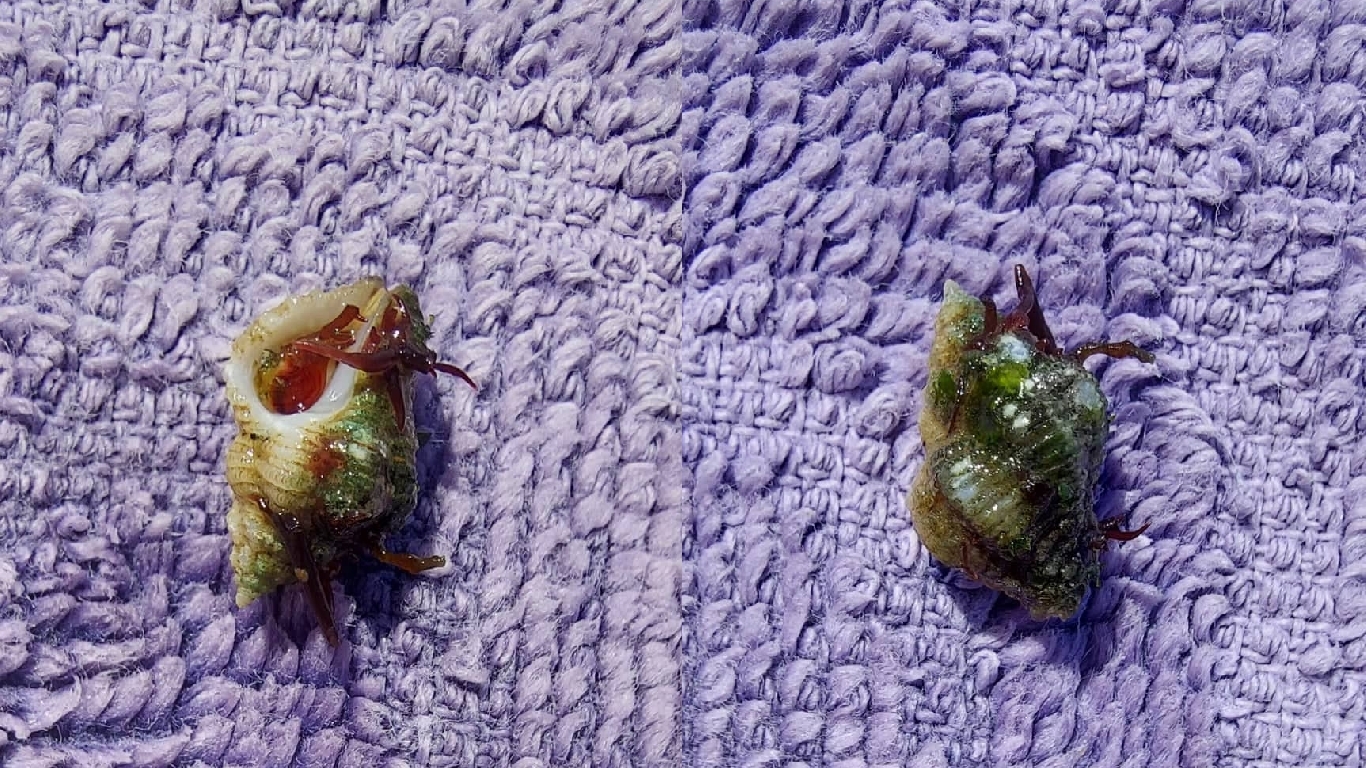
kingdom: Animalia
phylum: Mollusca
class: Gastropoda
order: Neogastropoda
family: Muricidae
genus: Coralliophila
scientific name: Coralliophila meyendorffii
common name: Lamellose coral shell
